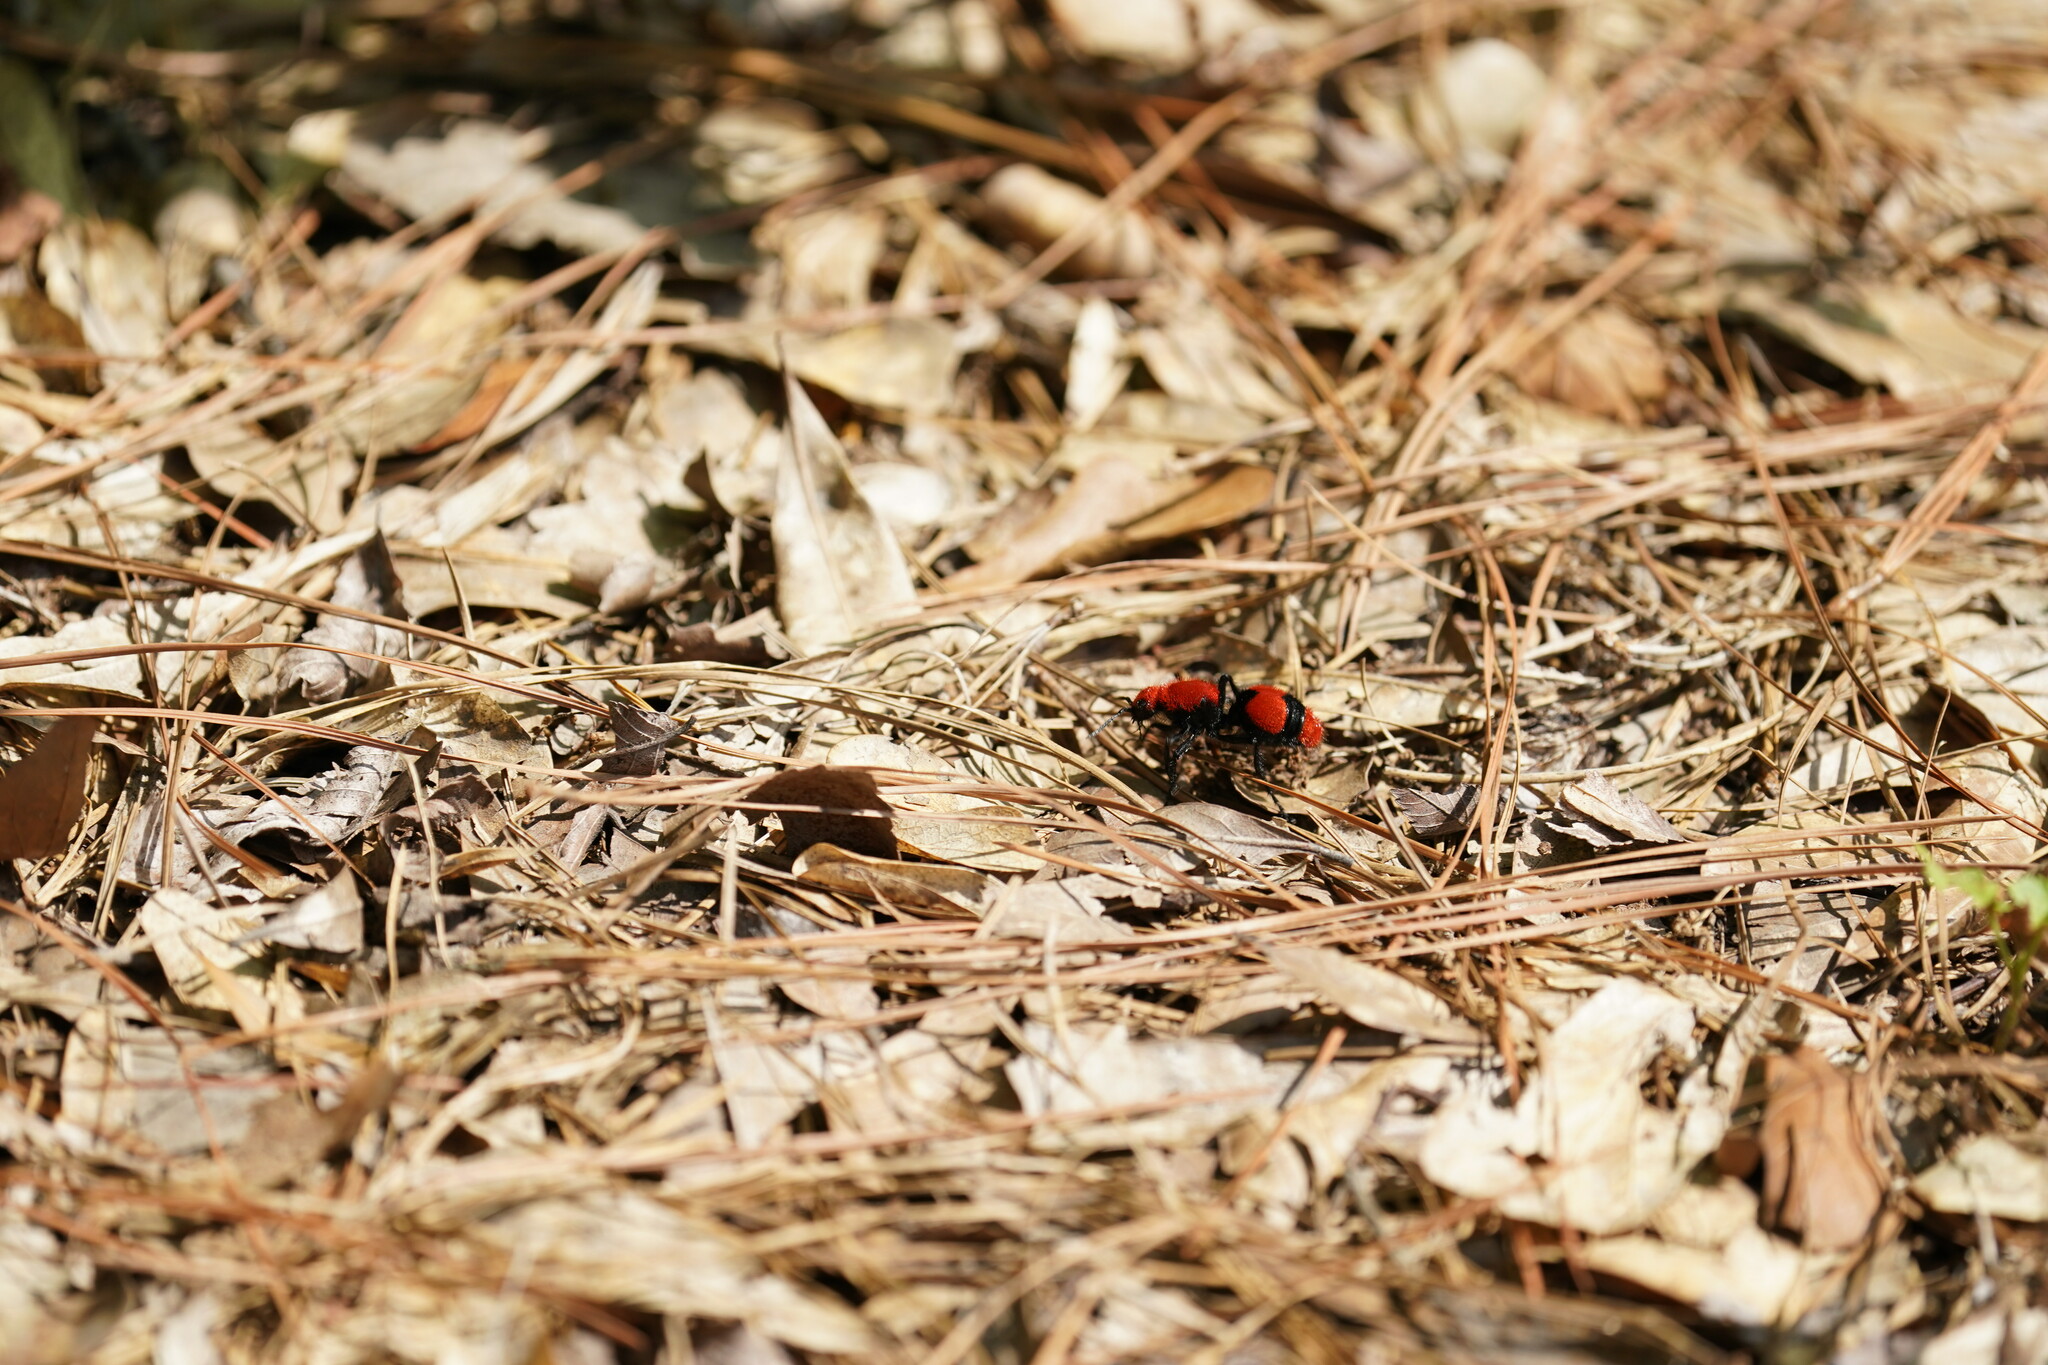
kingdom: Animalia
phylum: Arthropoda
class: Insecta
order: Hymenoptera
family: Mutillidae
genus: Dasymutilla
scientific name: Dasymutilla occidentalis
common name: Common eastern velvet ant
